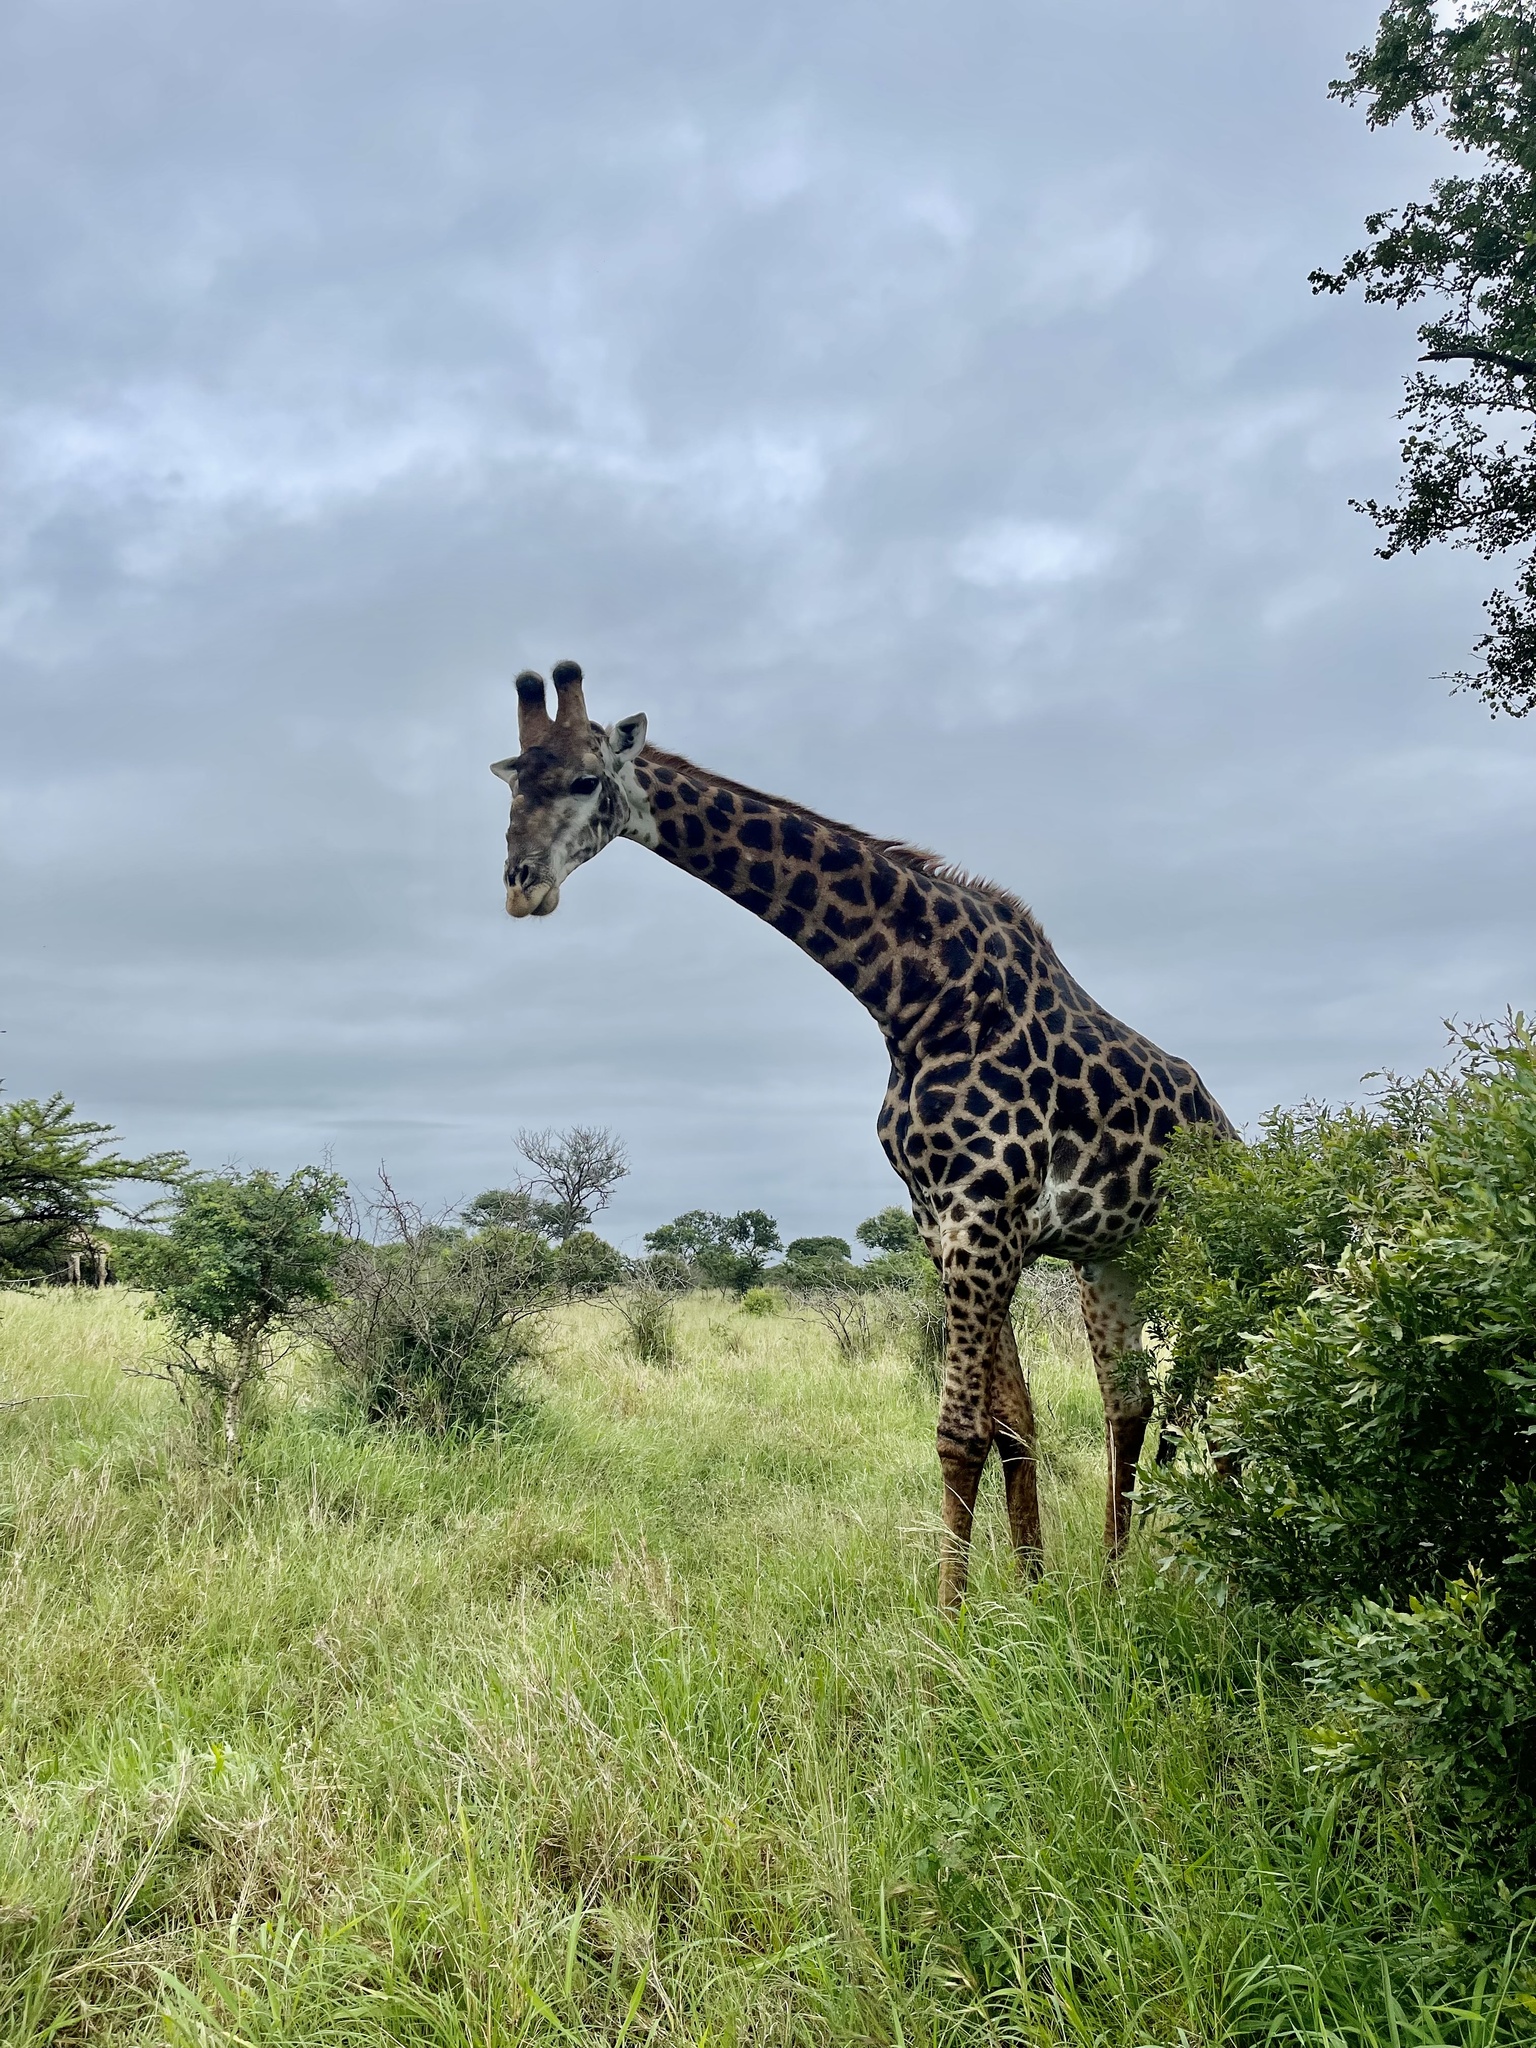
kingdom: Animalia
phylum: Chordata
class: Mammalia
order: Artiodactyla
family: Giraffidae
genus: Giraffa
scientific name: Giraffa giraffa
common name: Southern giraffe
